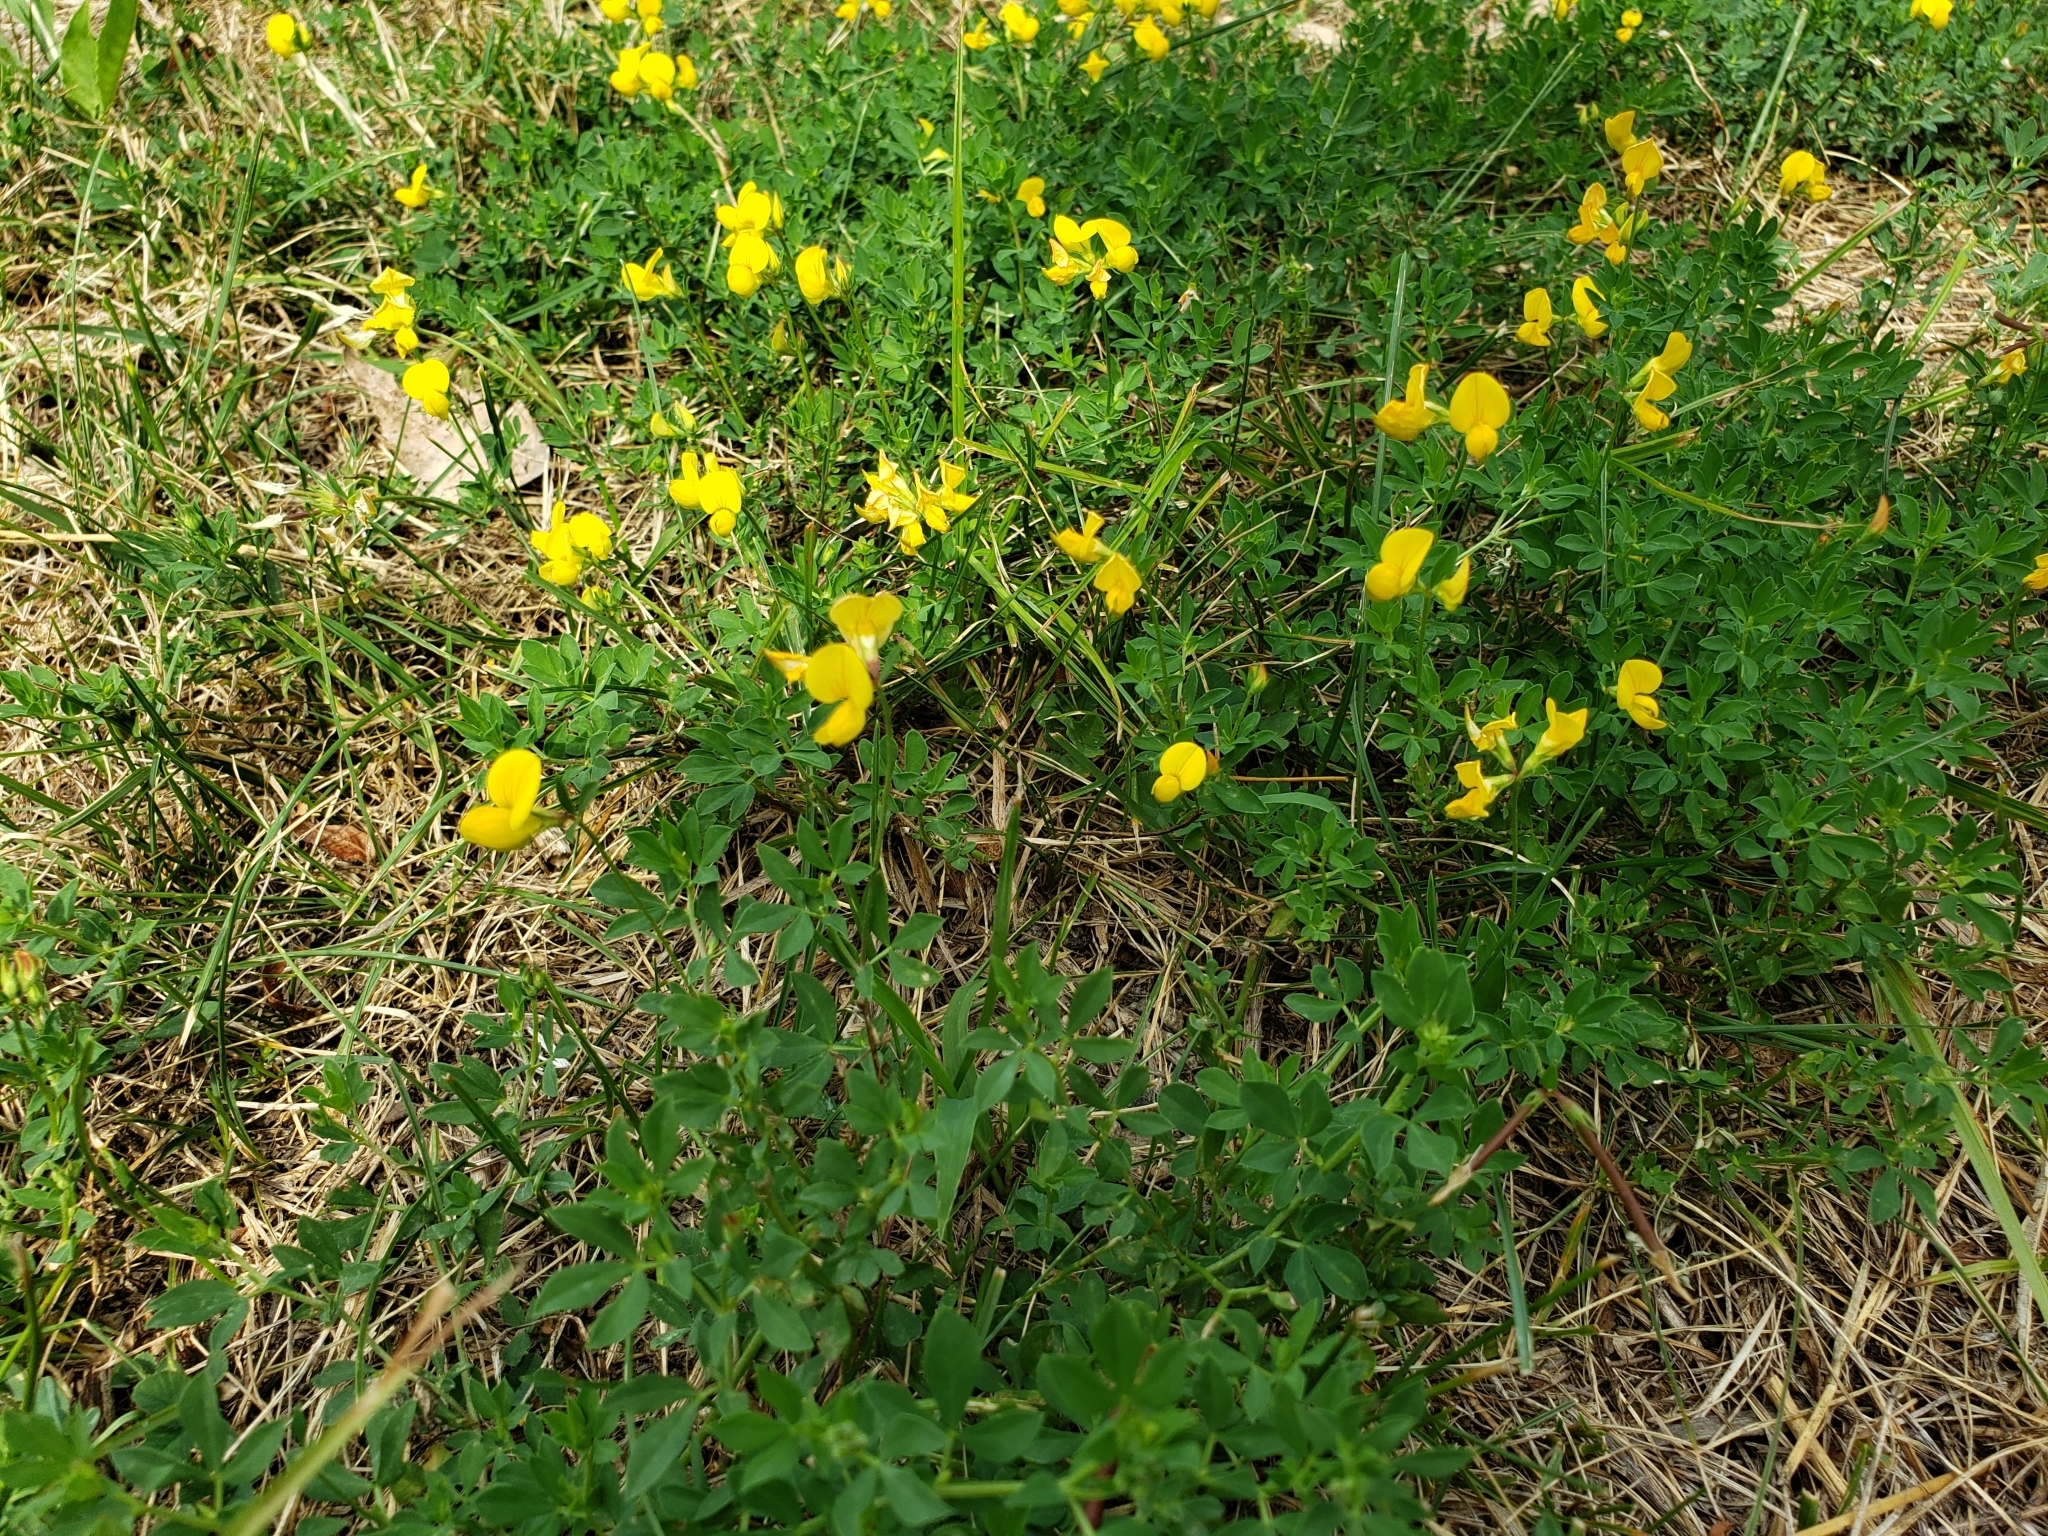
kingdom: Plantae
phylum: Tracheophyta
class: Magnoliopsida
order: Fabales
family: Fabaceae
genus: Lotus
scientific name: Lotus corniculatus
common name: Common bird's-foot-trefoil
